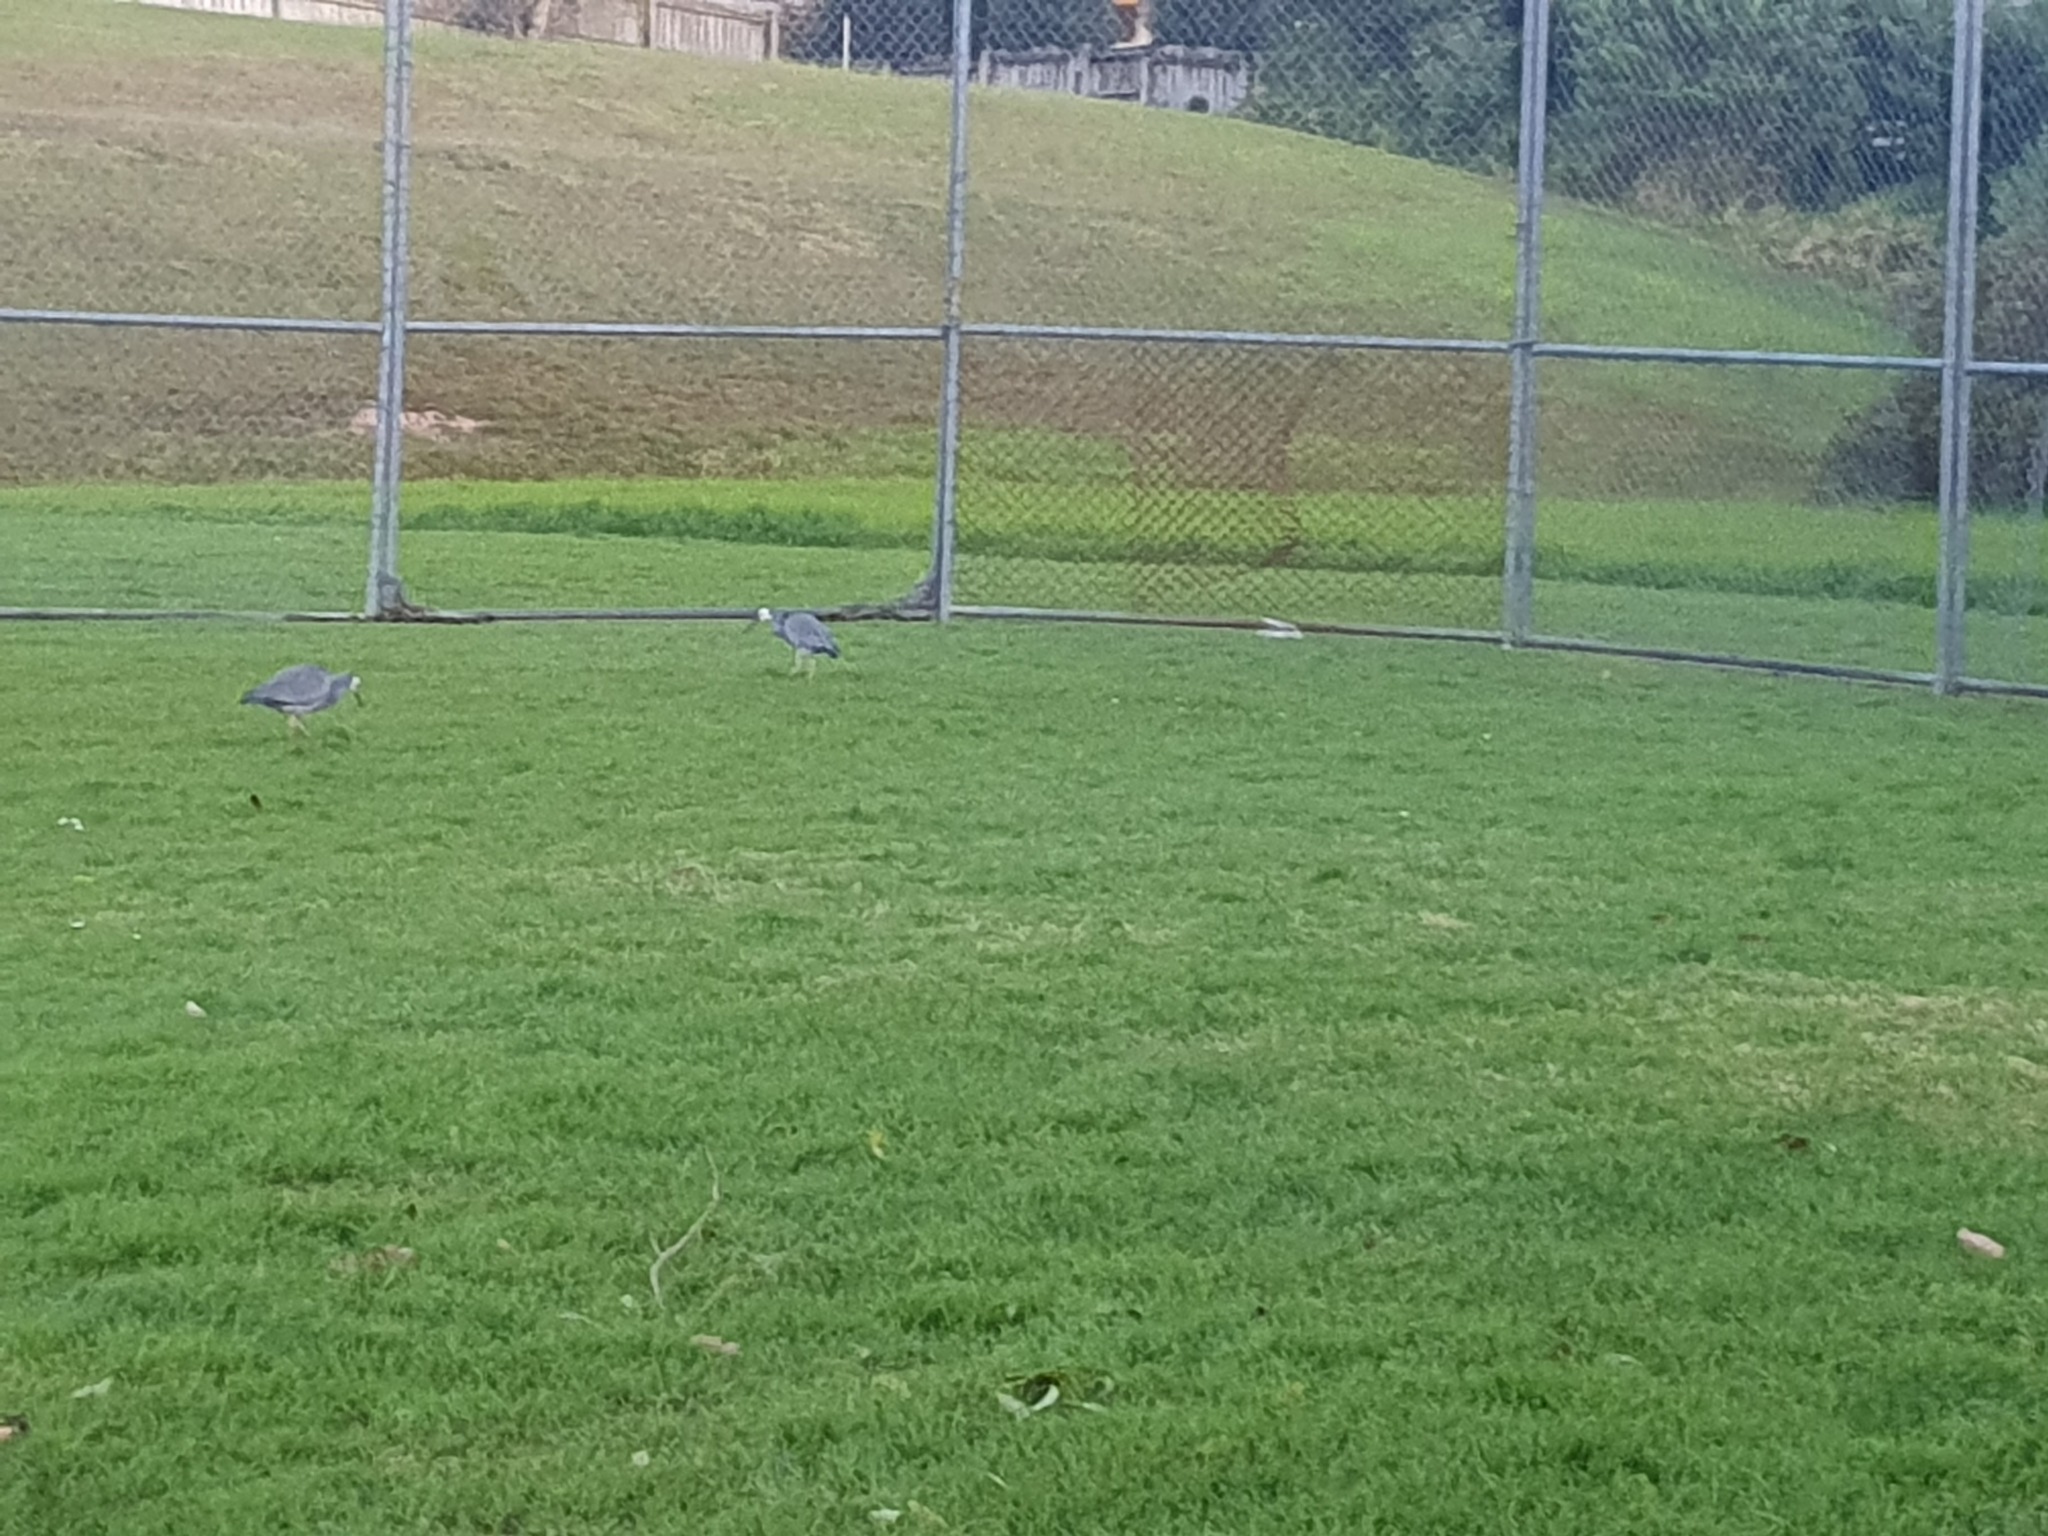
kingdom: Animalia
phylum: Chordata
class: Aves
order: Pelecaniformes
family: Ardeidae
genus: Egretta
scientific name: Egretta novaehollandiae
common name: White-faced heron
